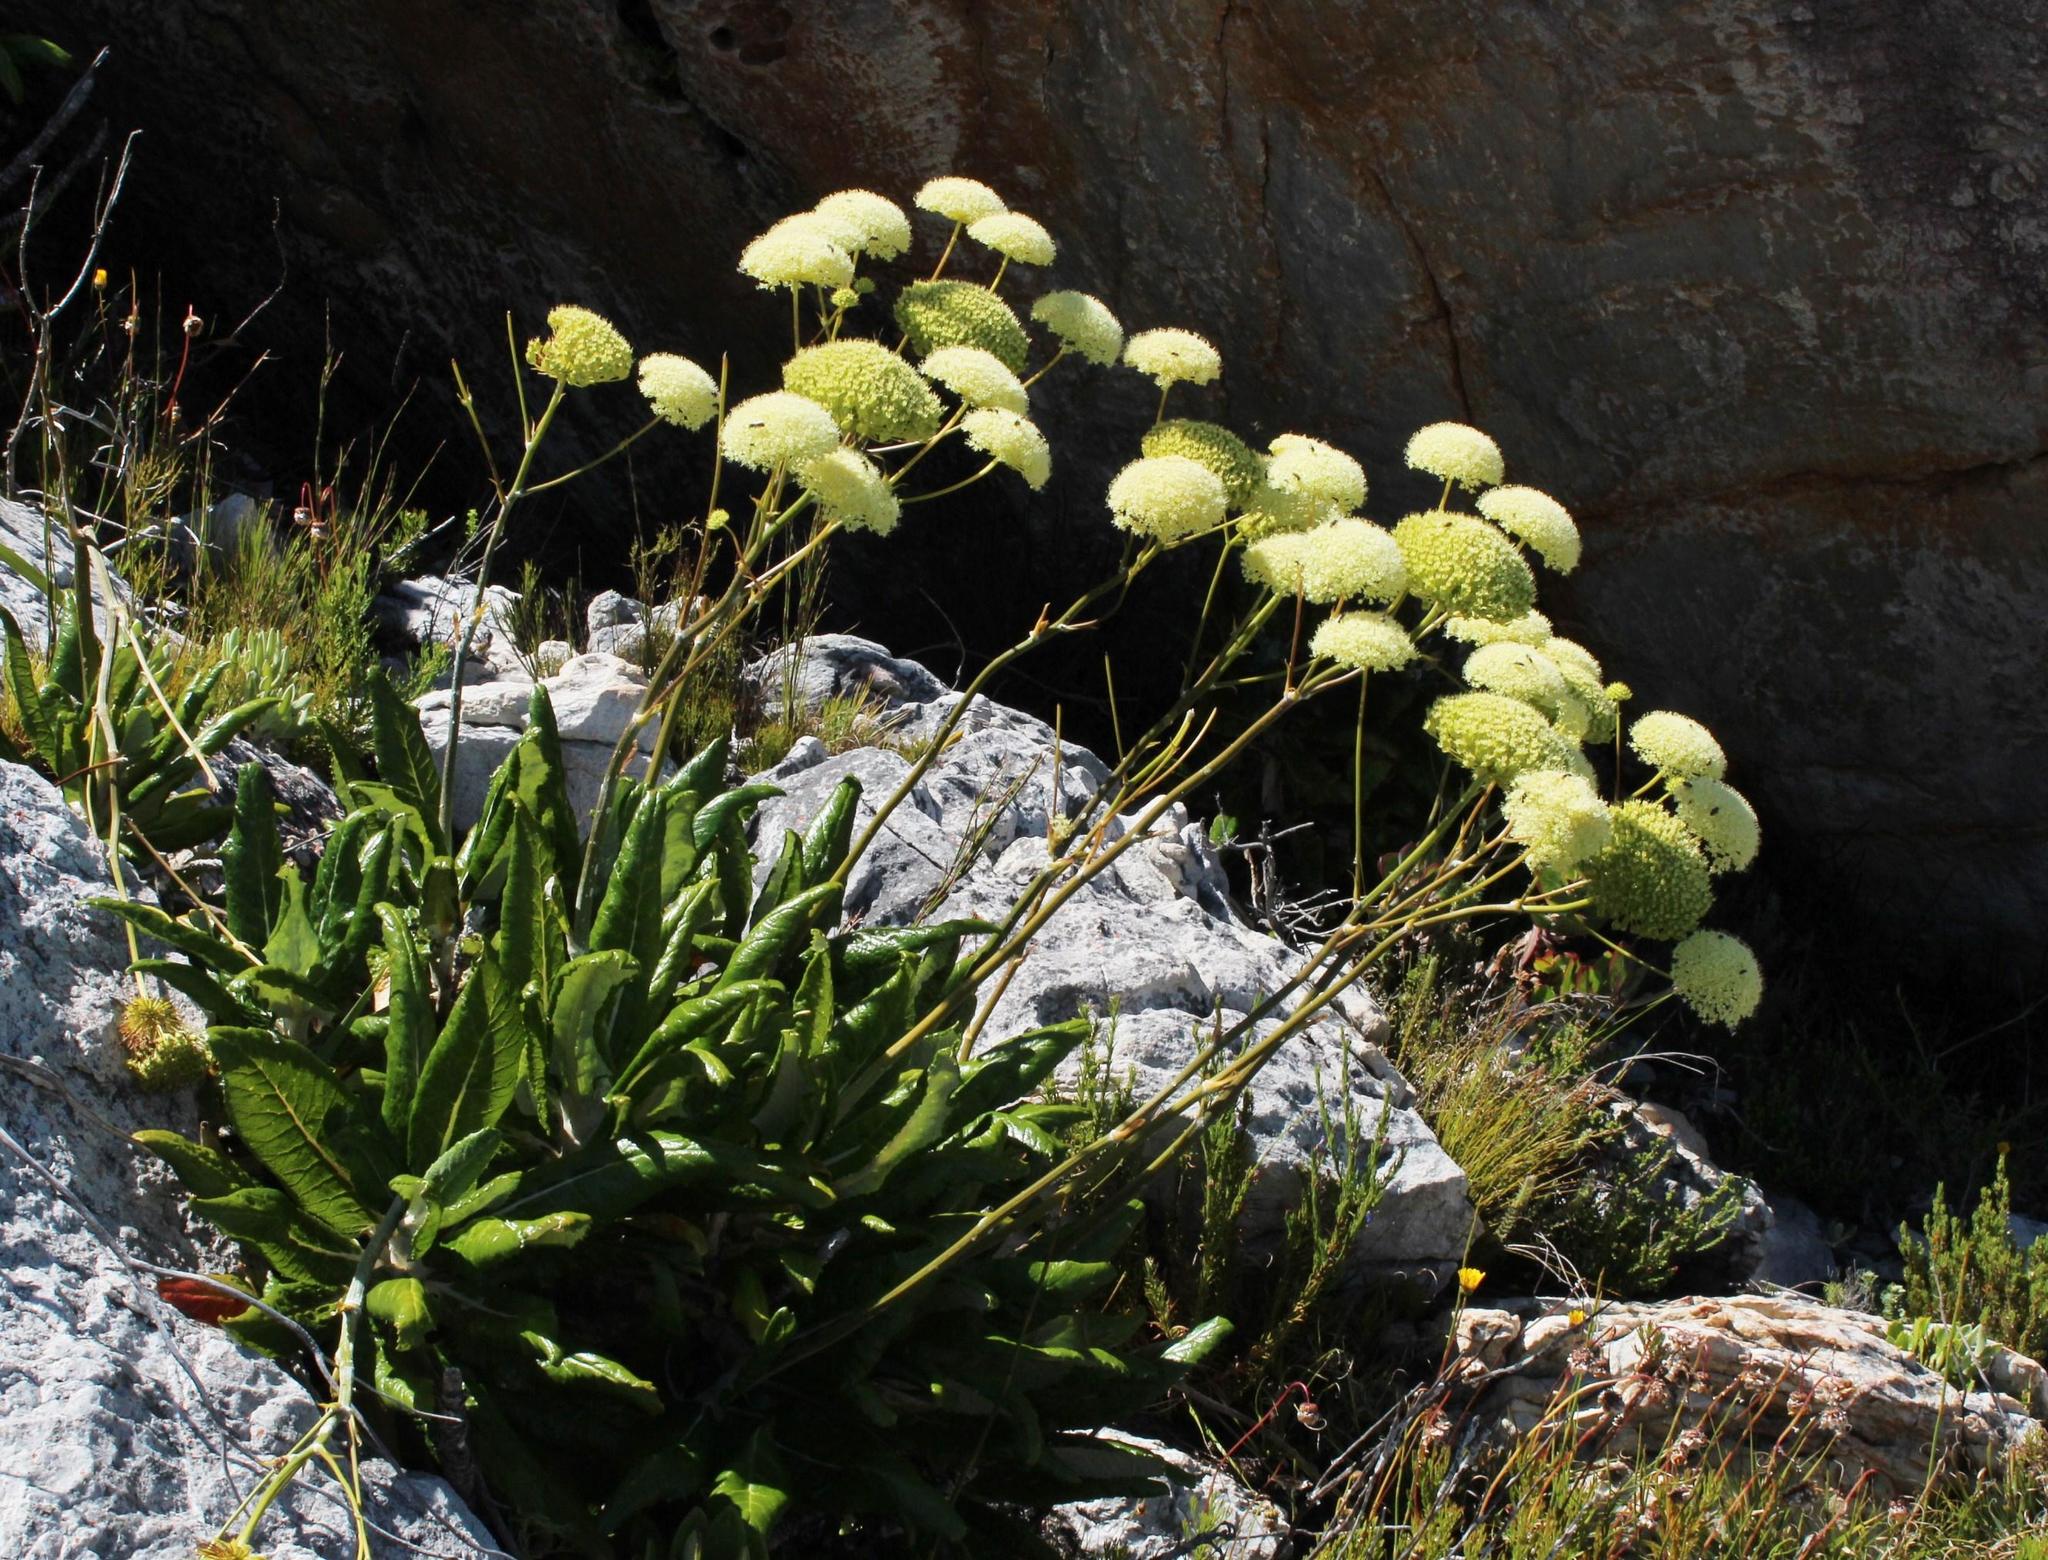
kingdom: Plantae
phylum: Tracheophyta
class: Magnoliopsida
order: Apiales
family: Apiaceae
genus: Hermas
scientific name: Hermas villosa
